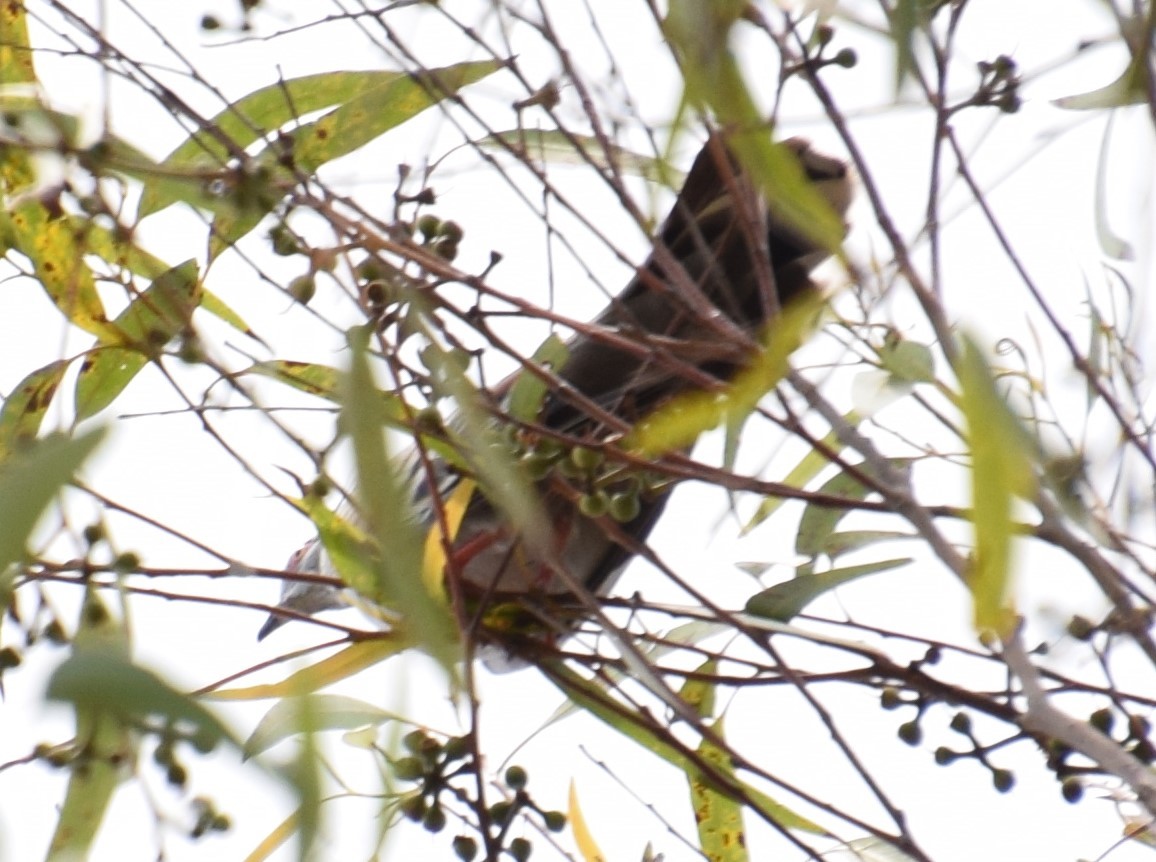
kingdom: Animalia
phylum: Chordata
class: Aves
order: Columbiformes
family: Columbidae
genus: Ocyphaps
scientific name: Ocyphaps lophotes
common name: Crested pigeon
